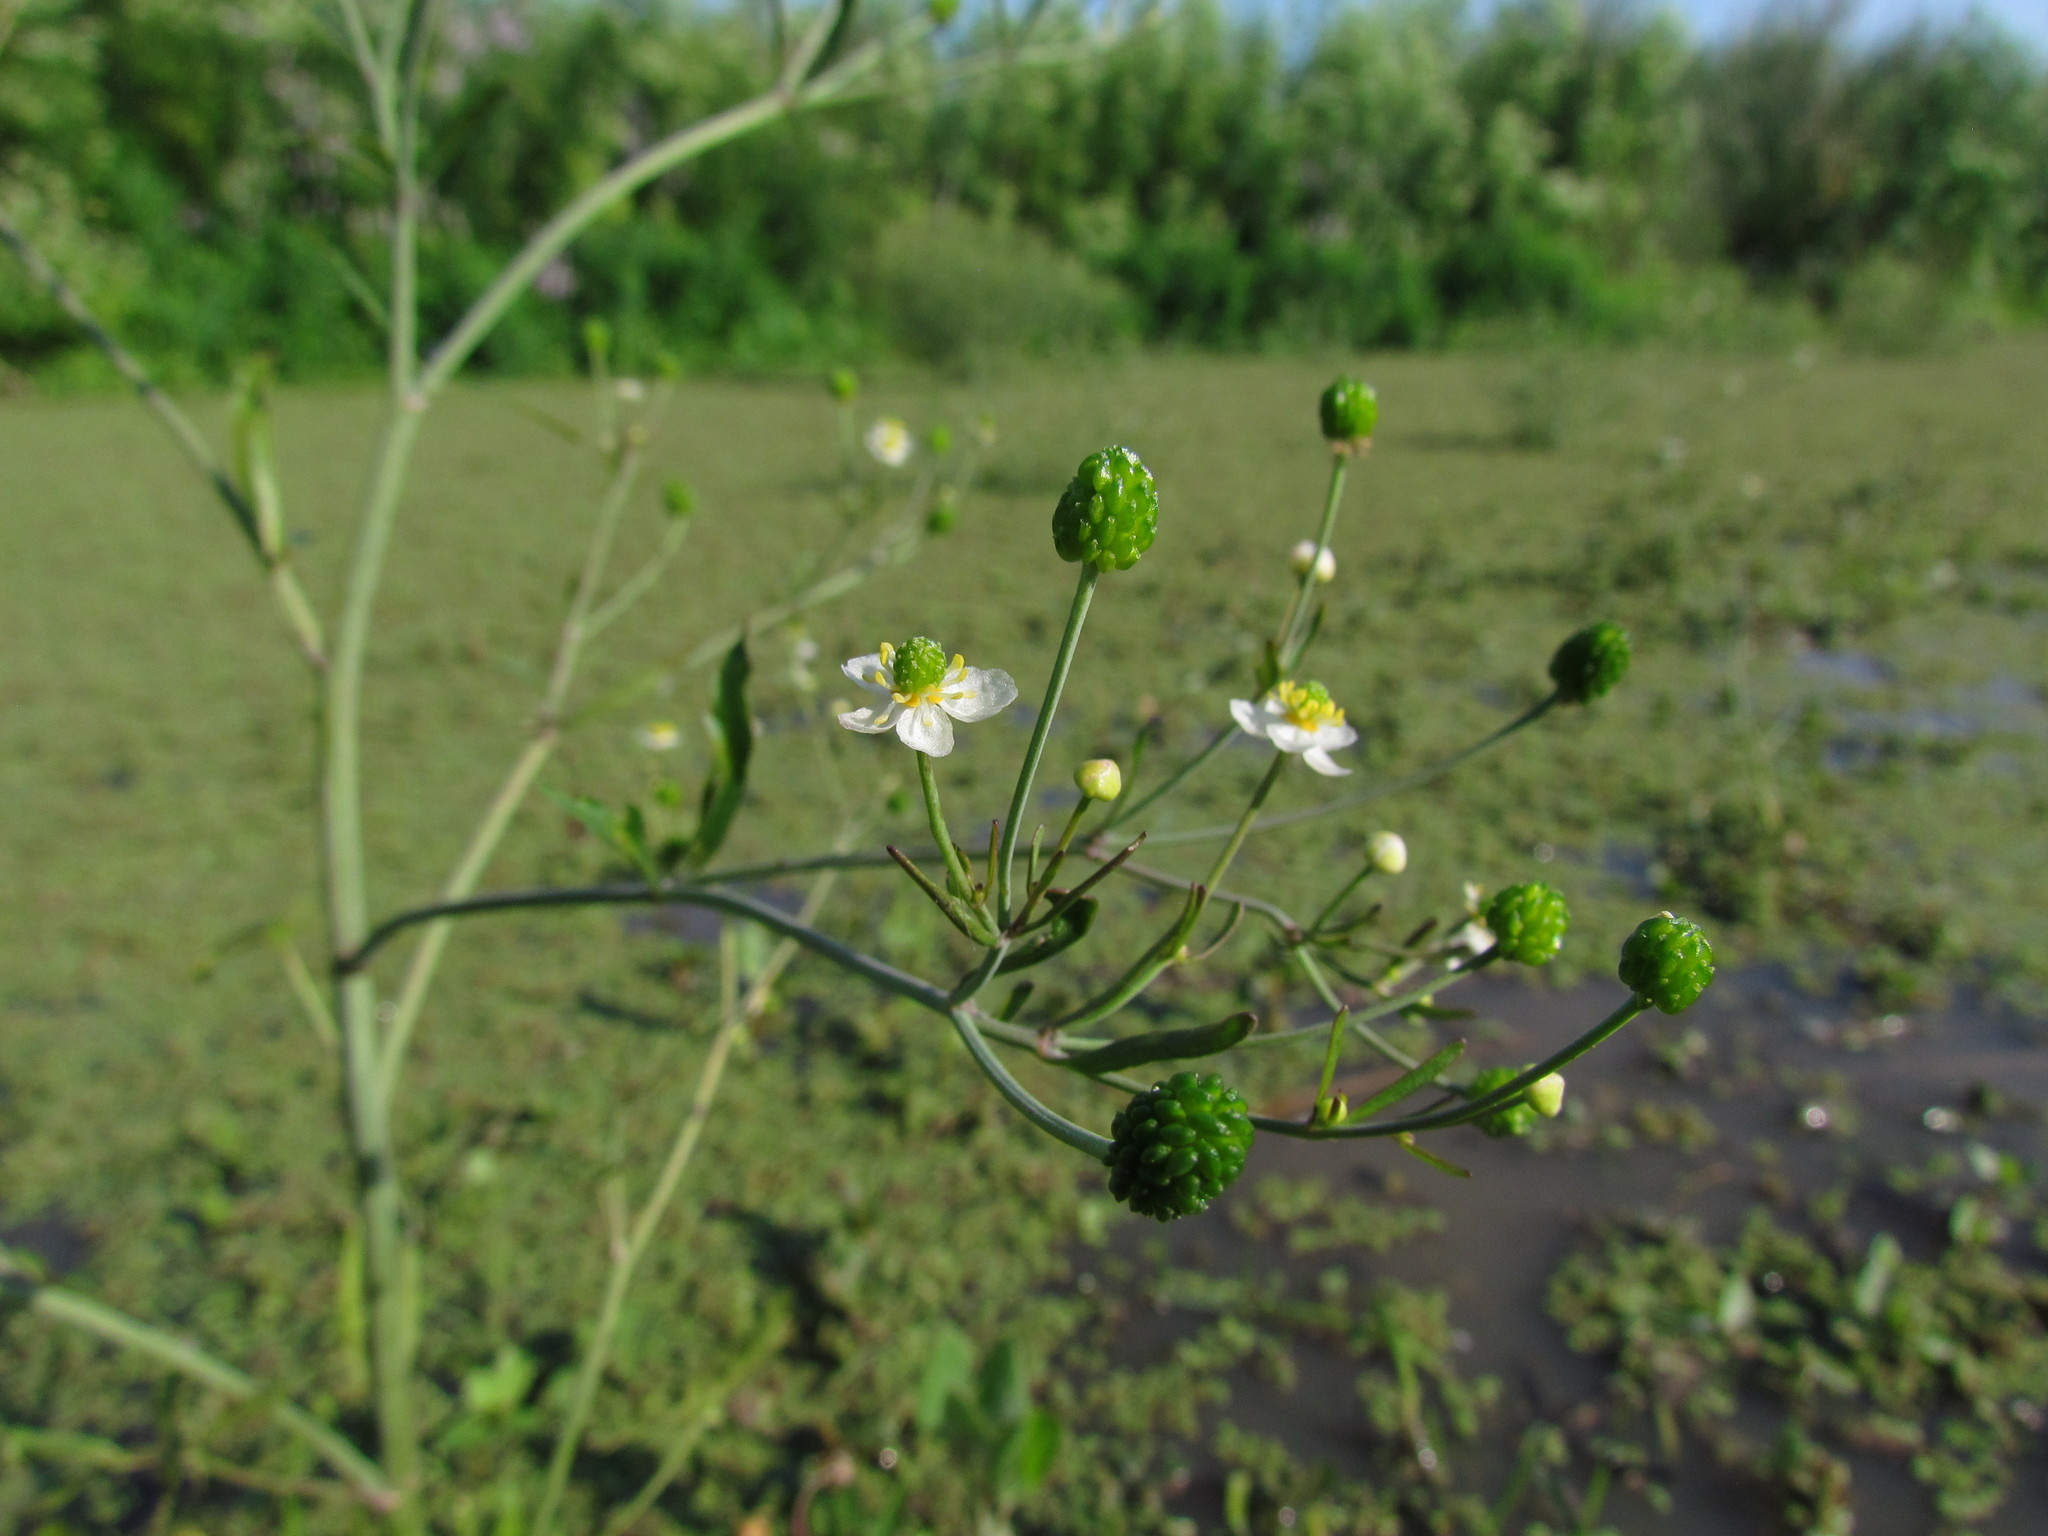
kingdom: Plantae
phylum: Tracheophyta
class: Magnoliopsida
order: Ranunculales
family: Ranunculaceae
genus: Ranunculus
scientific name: Ranunculus apiifolius
